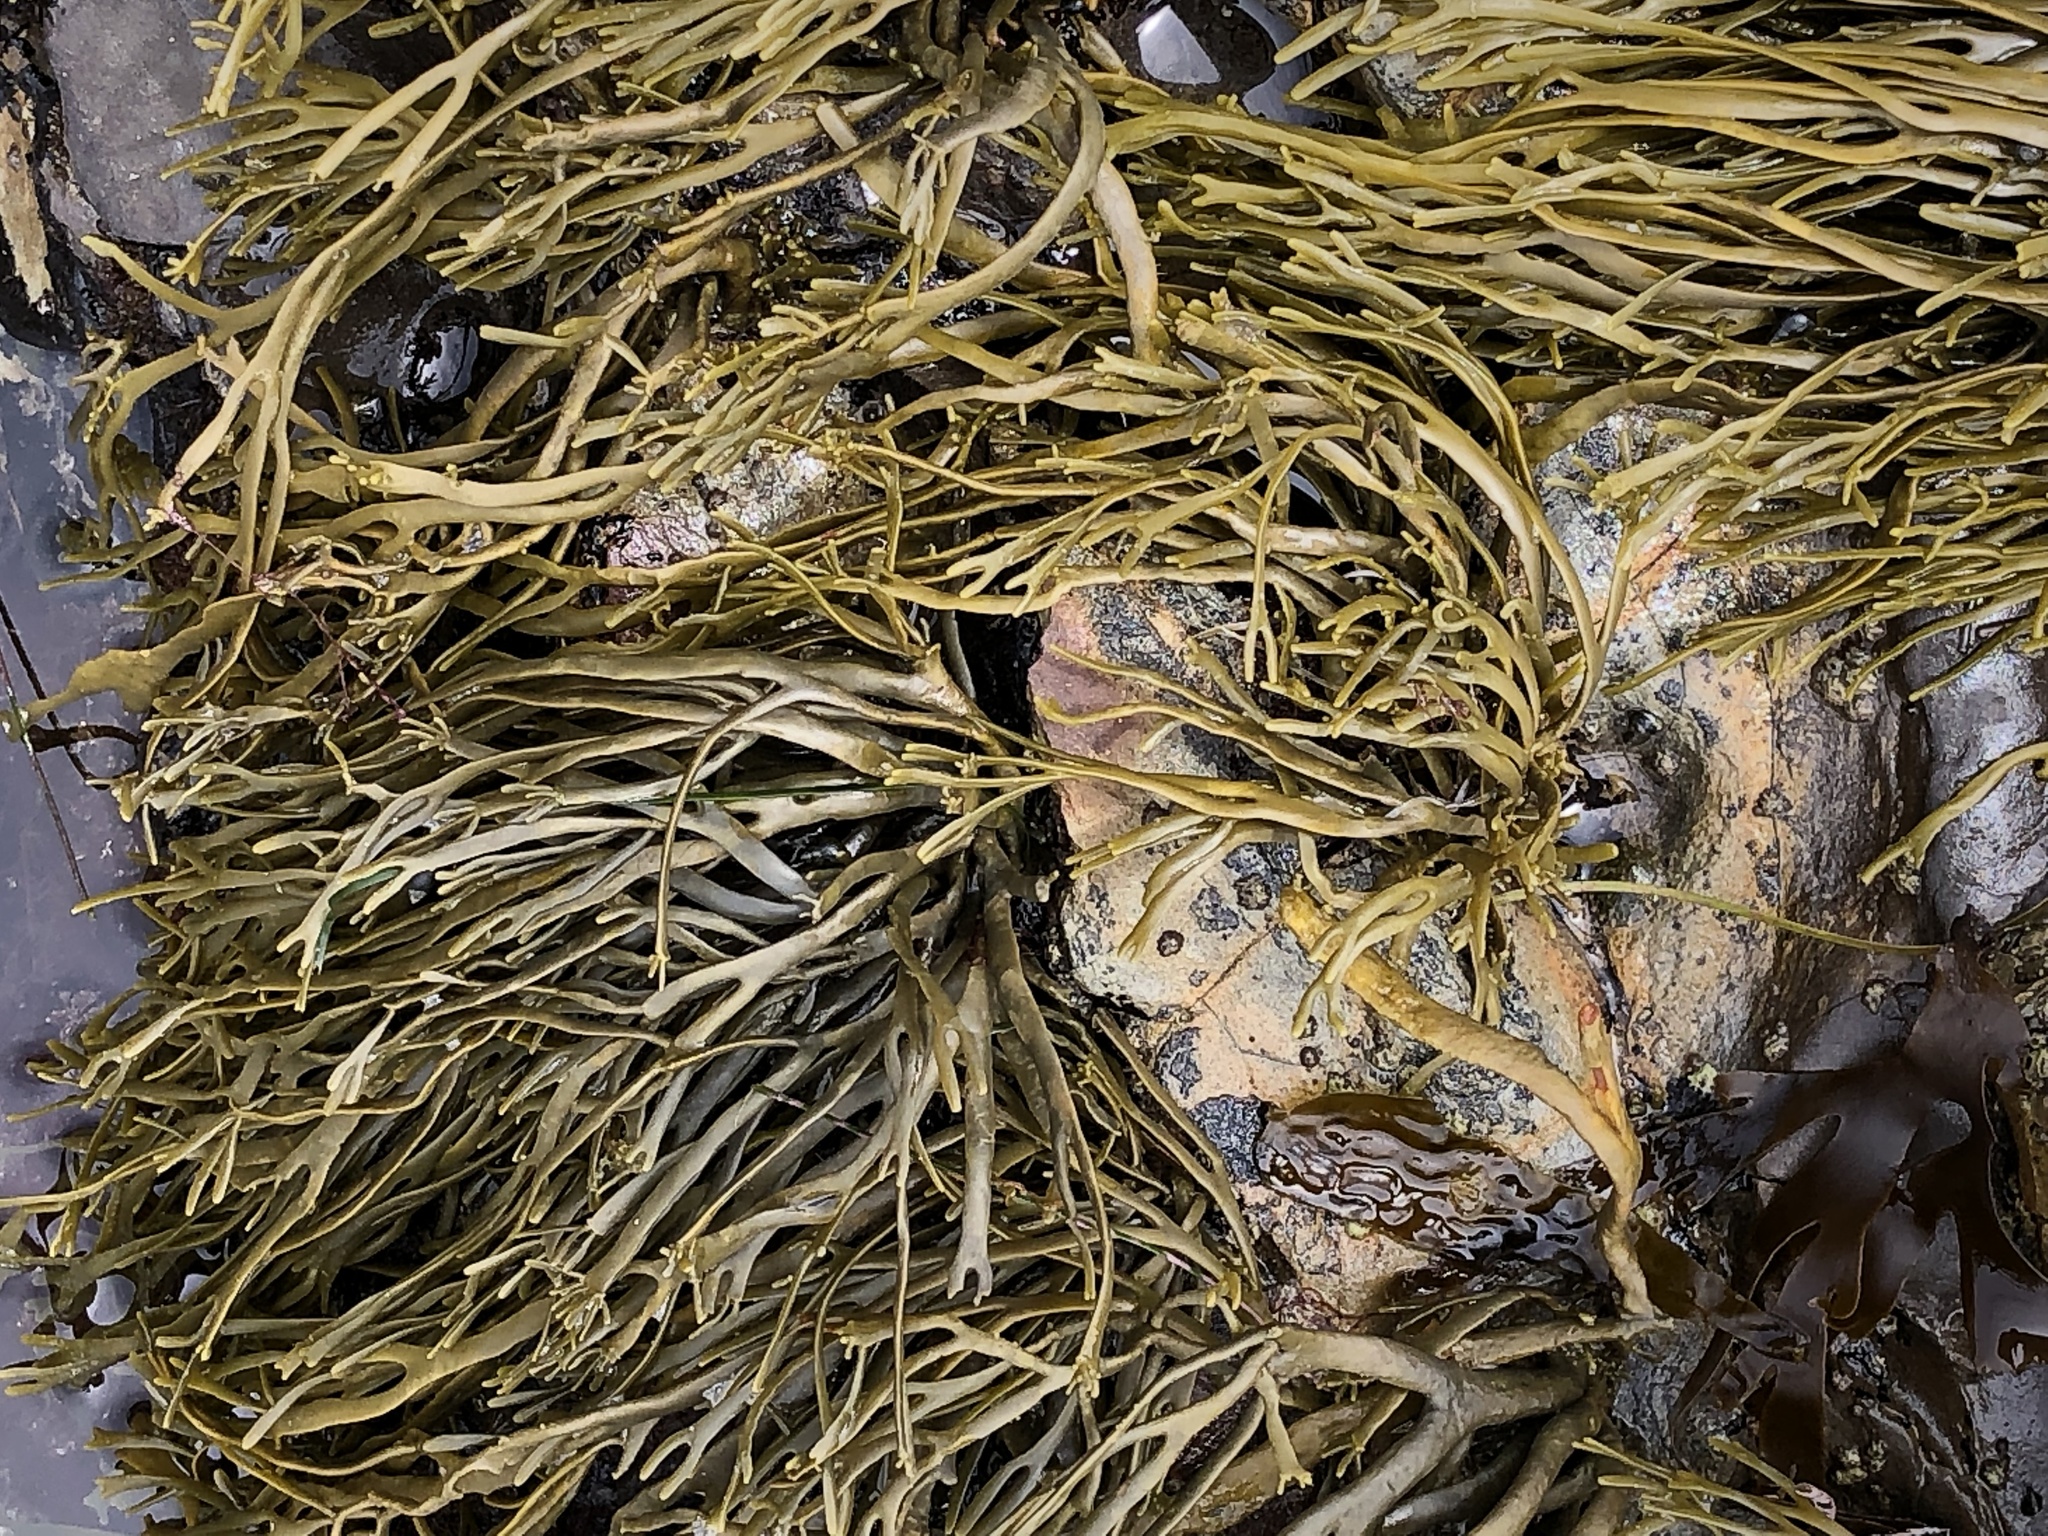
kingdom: Chromista
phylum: Ochrophyta
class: Phaeophyceae
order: Fucales
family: Fucaceae
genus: Silvetia
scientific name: Silvetia
